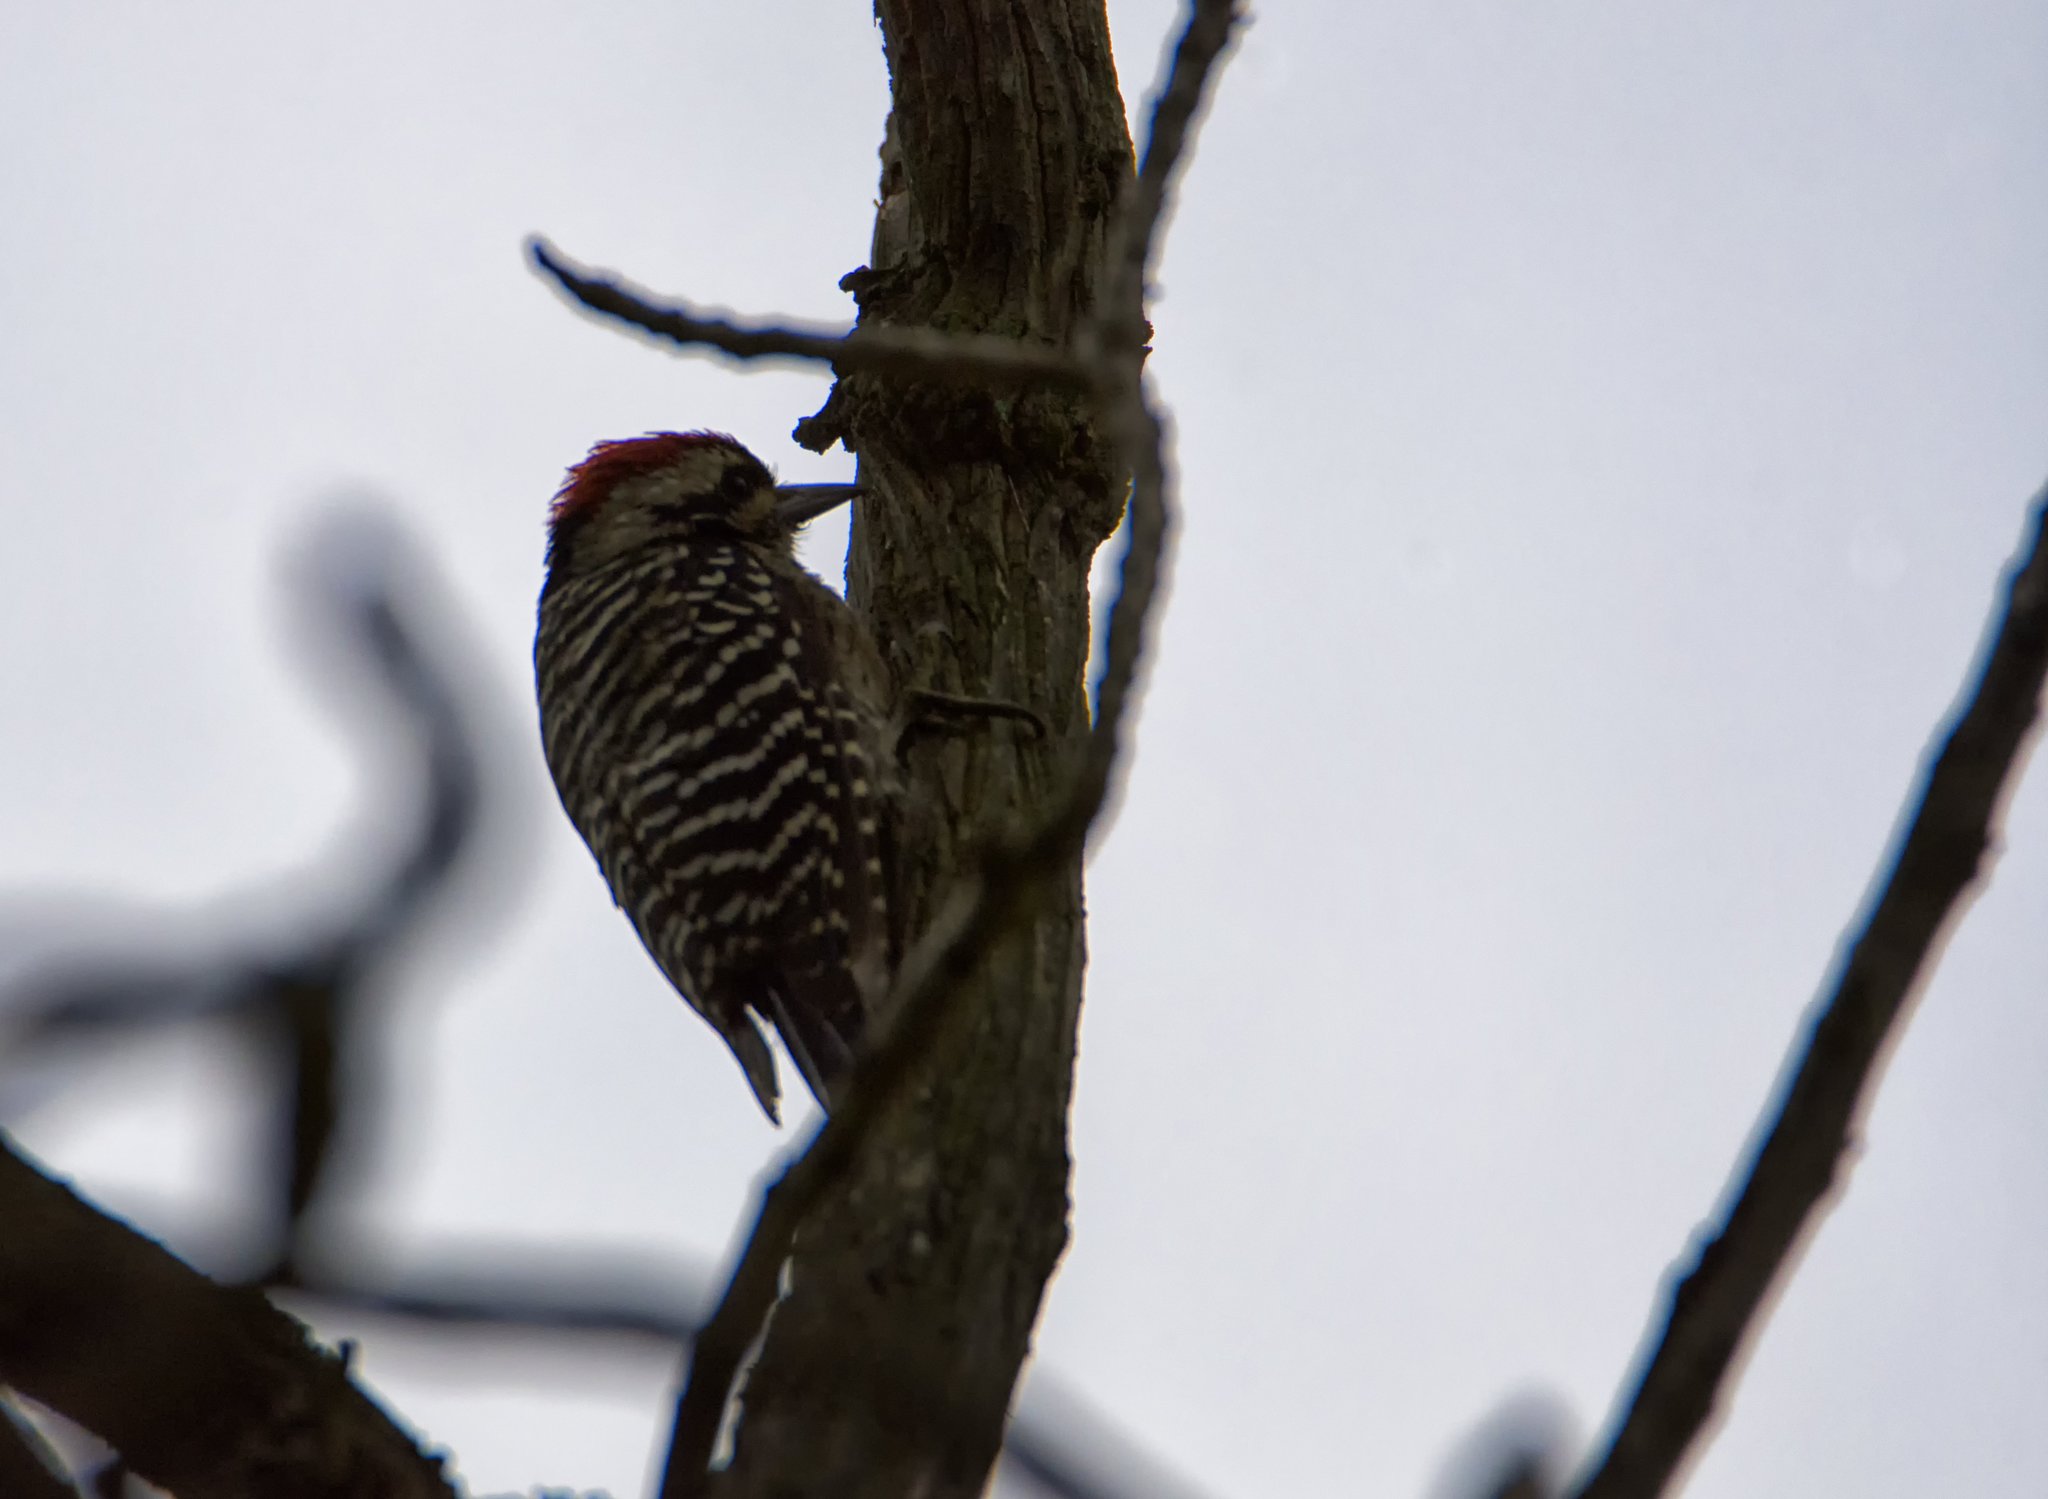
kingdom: Animalia
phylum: Chordata
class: Aves
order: Piciformes
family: Picidae
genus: Dryobates
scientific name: Dryobates scalaris
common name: Ladder-backed woodpecker
